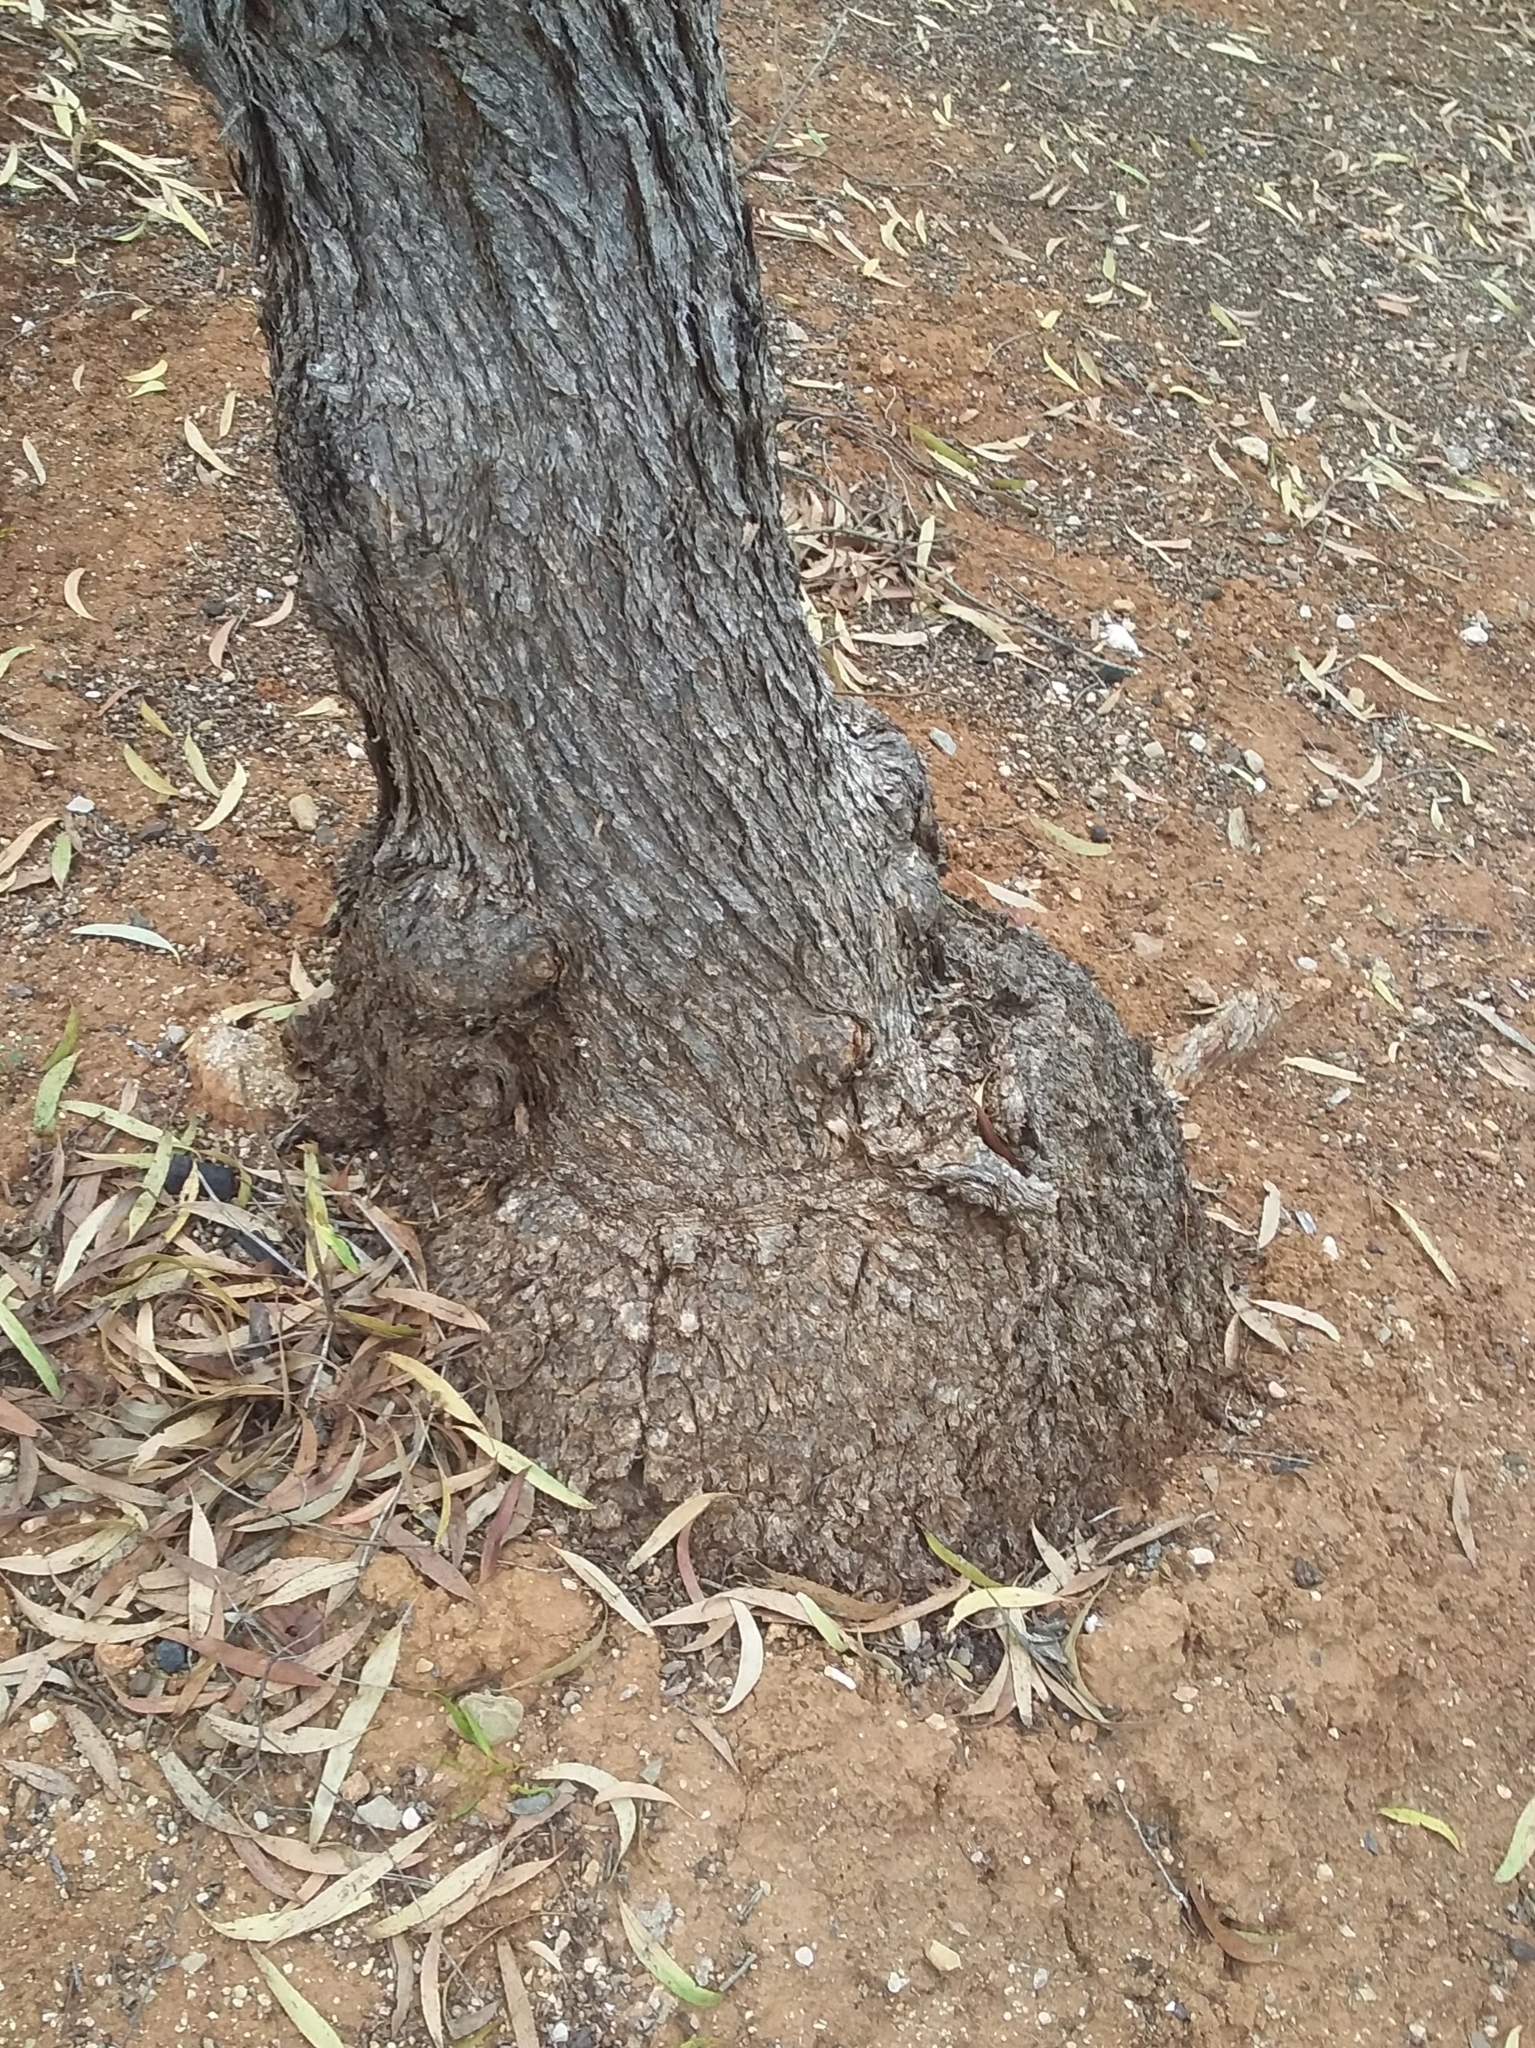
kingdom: Plantae
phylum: Tracheophyta
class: Magnoliopsida
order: Myrtales
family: Myrtaceae
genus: Eucalyptus
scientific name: Eucalyptus porosa
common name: Quorn mallee
